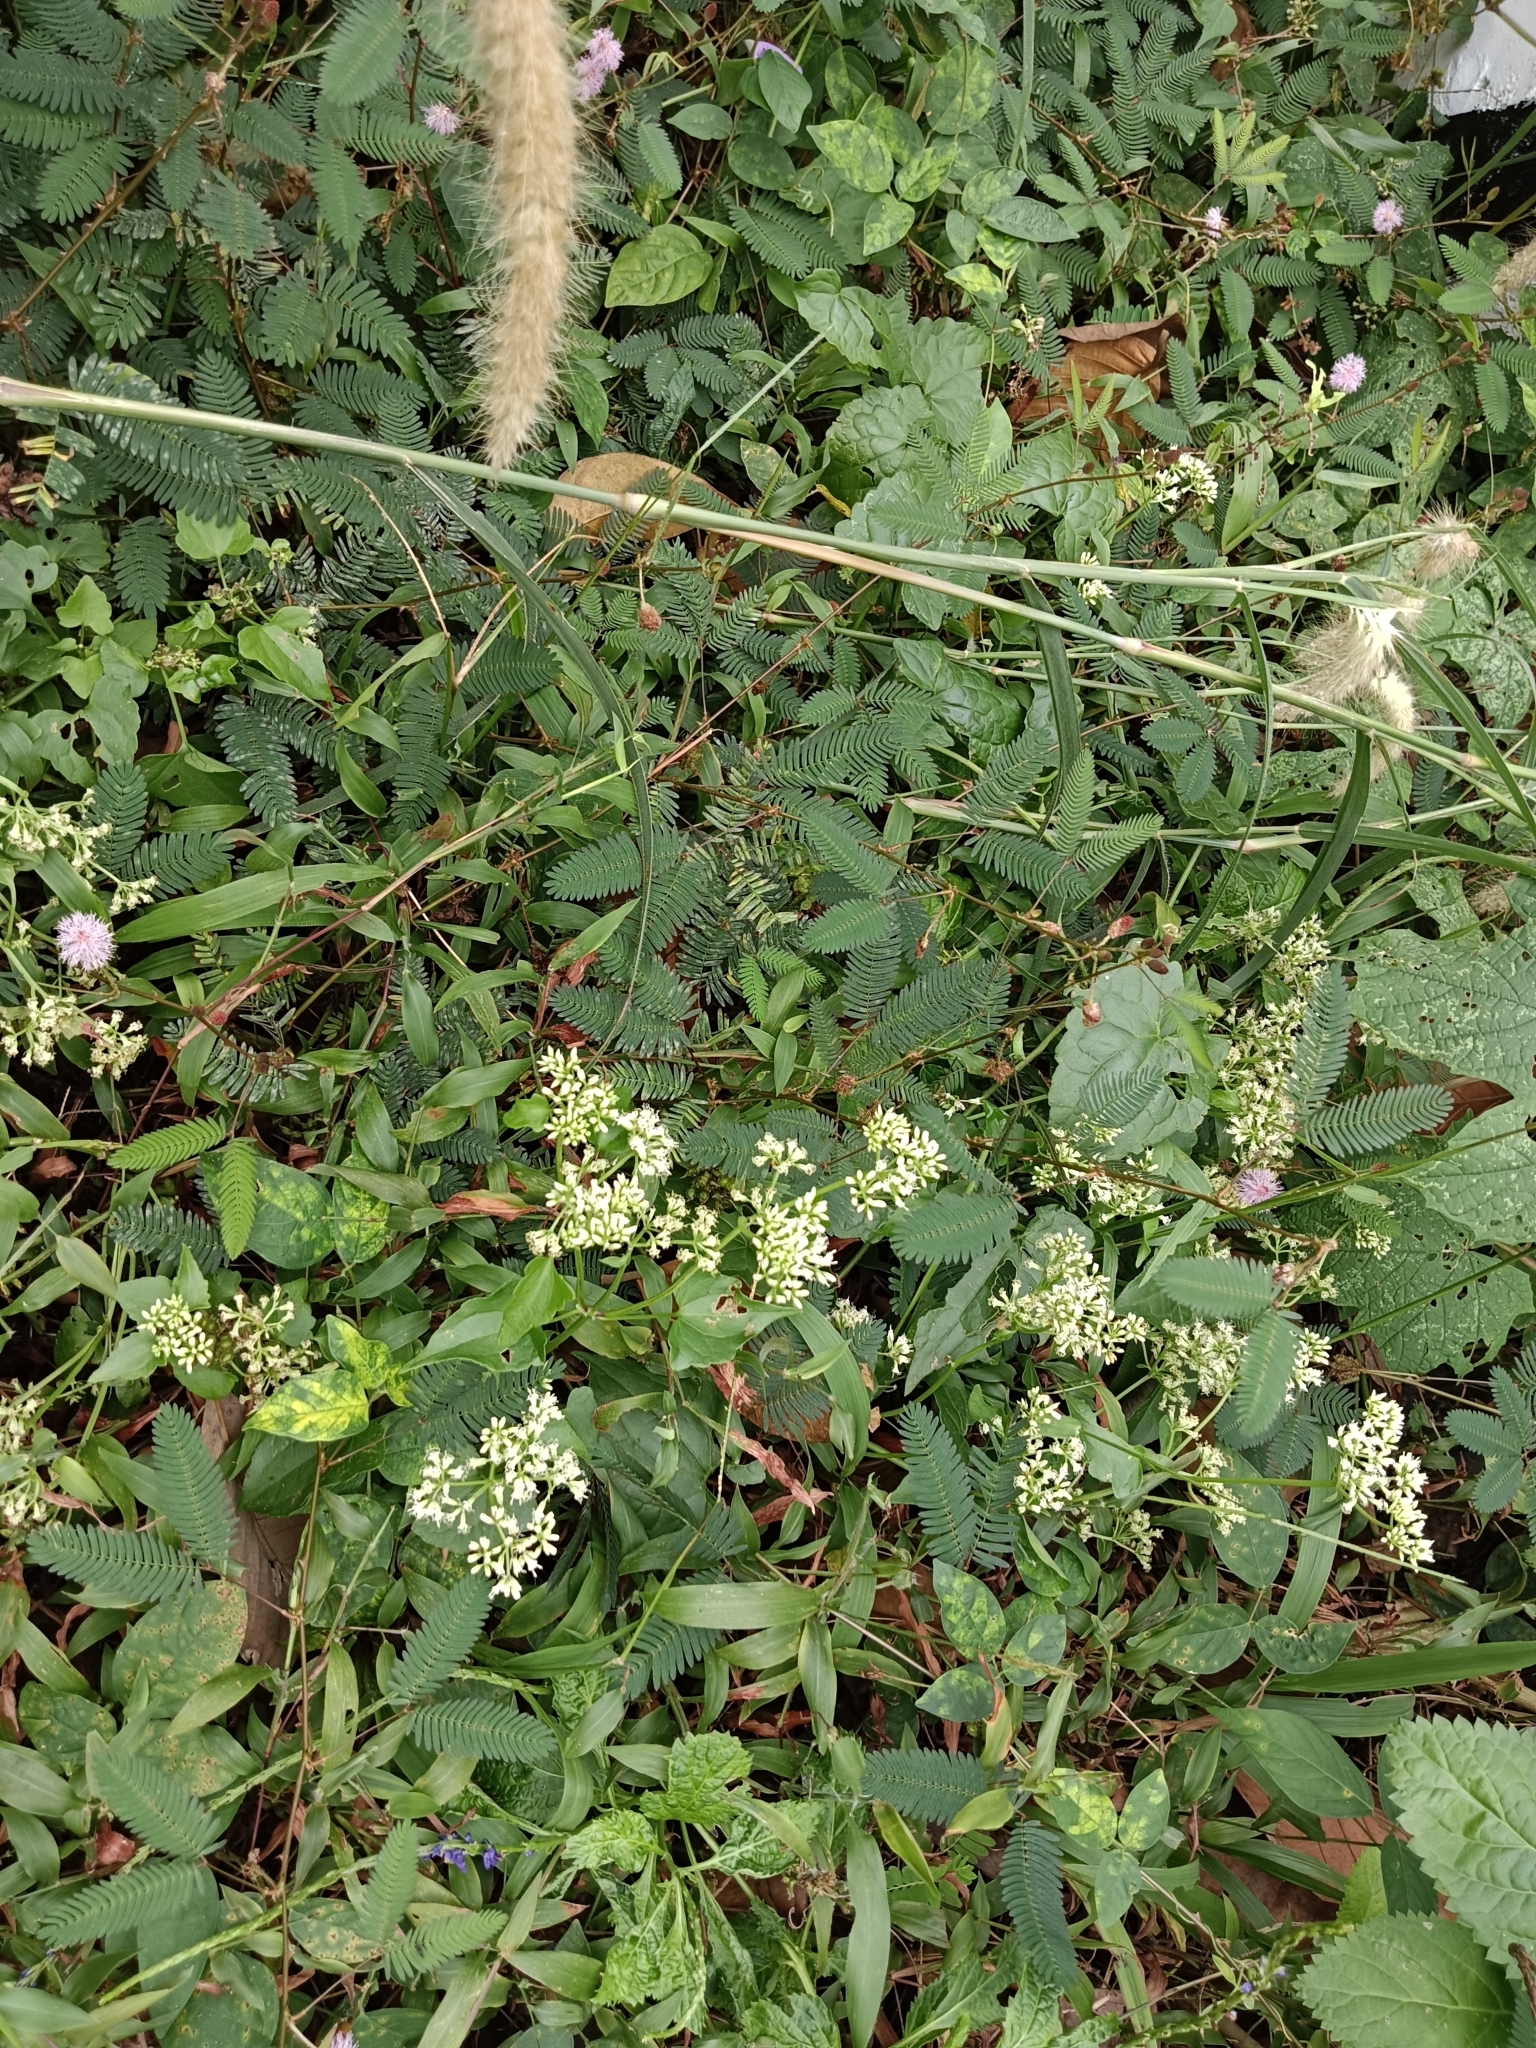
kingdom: Plantae
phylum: Tracheophyta
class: Magnoliopsida
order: Asterales
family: Asteraceae
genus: Mikania
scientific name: Mikania micrantha
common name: Mile-a-minute
